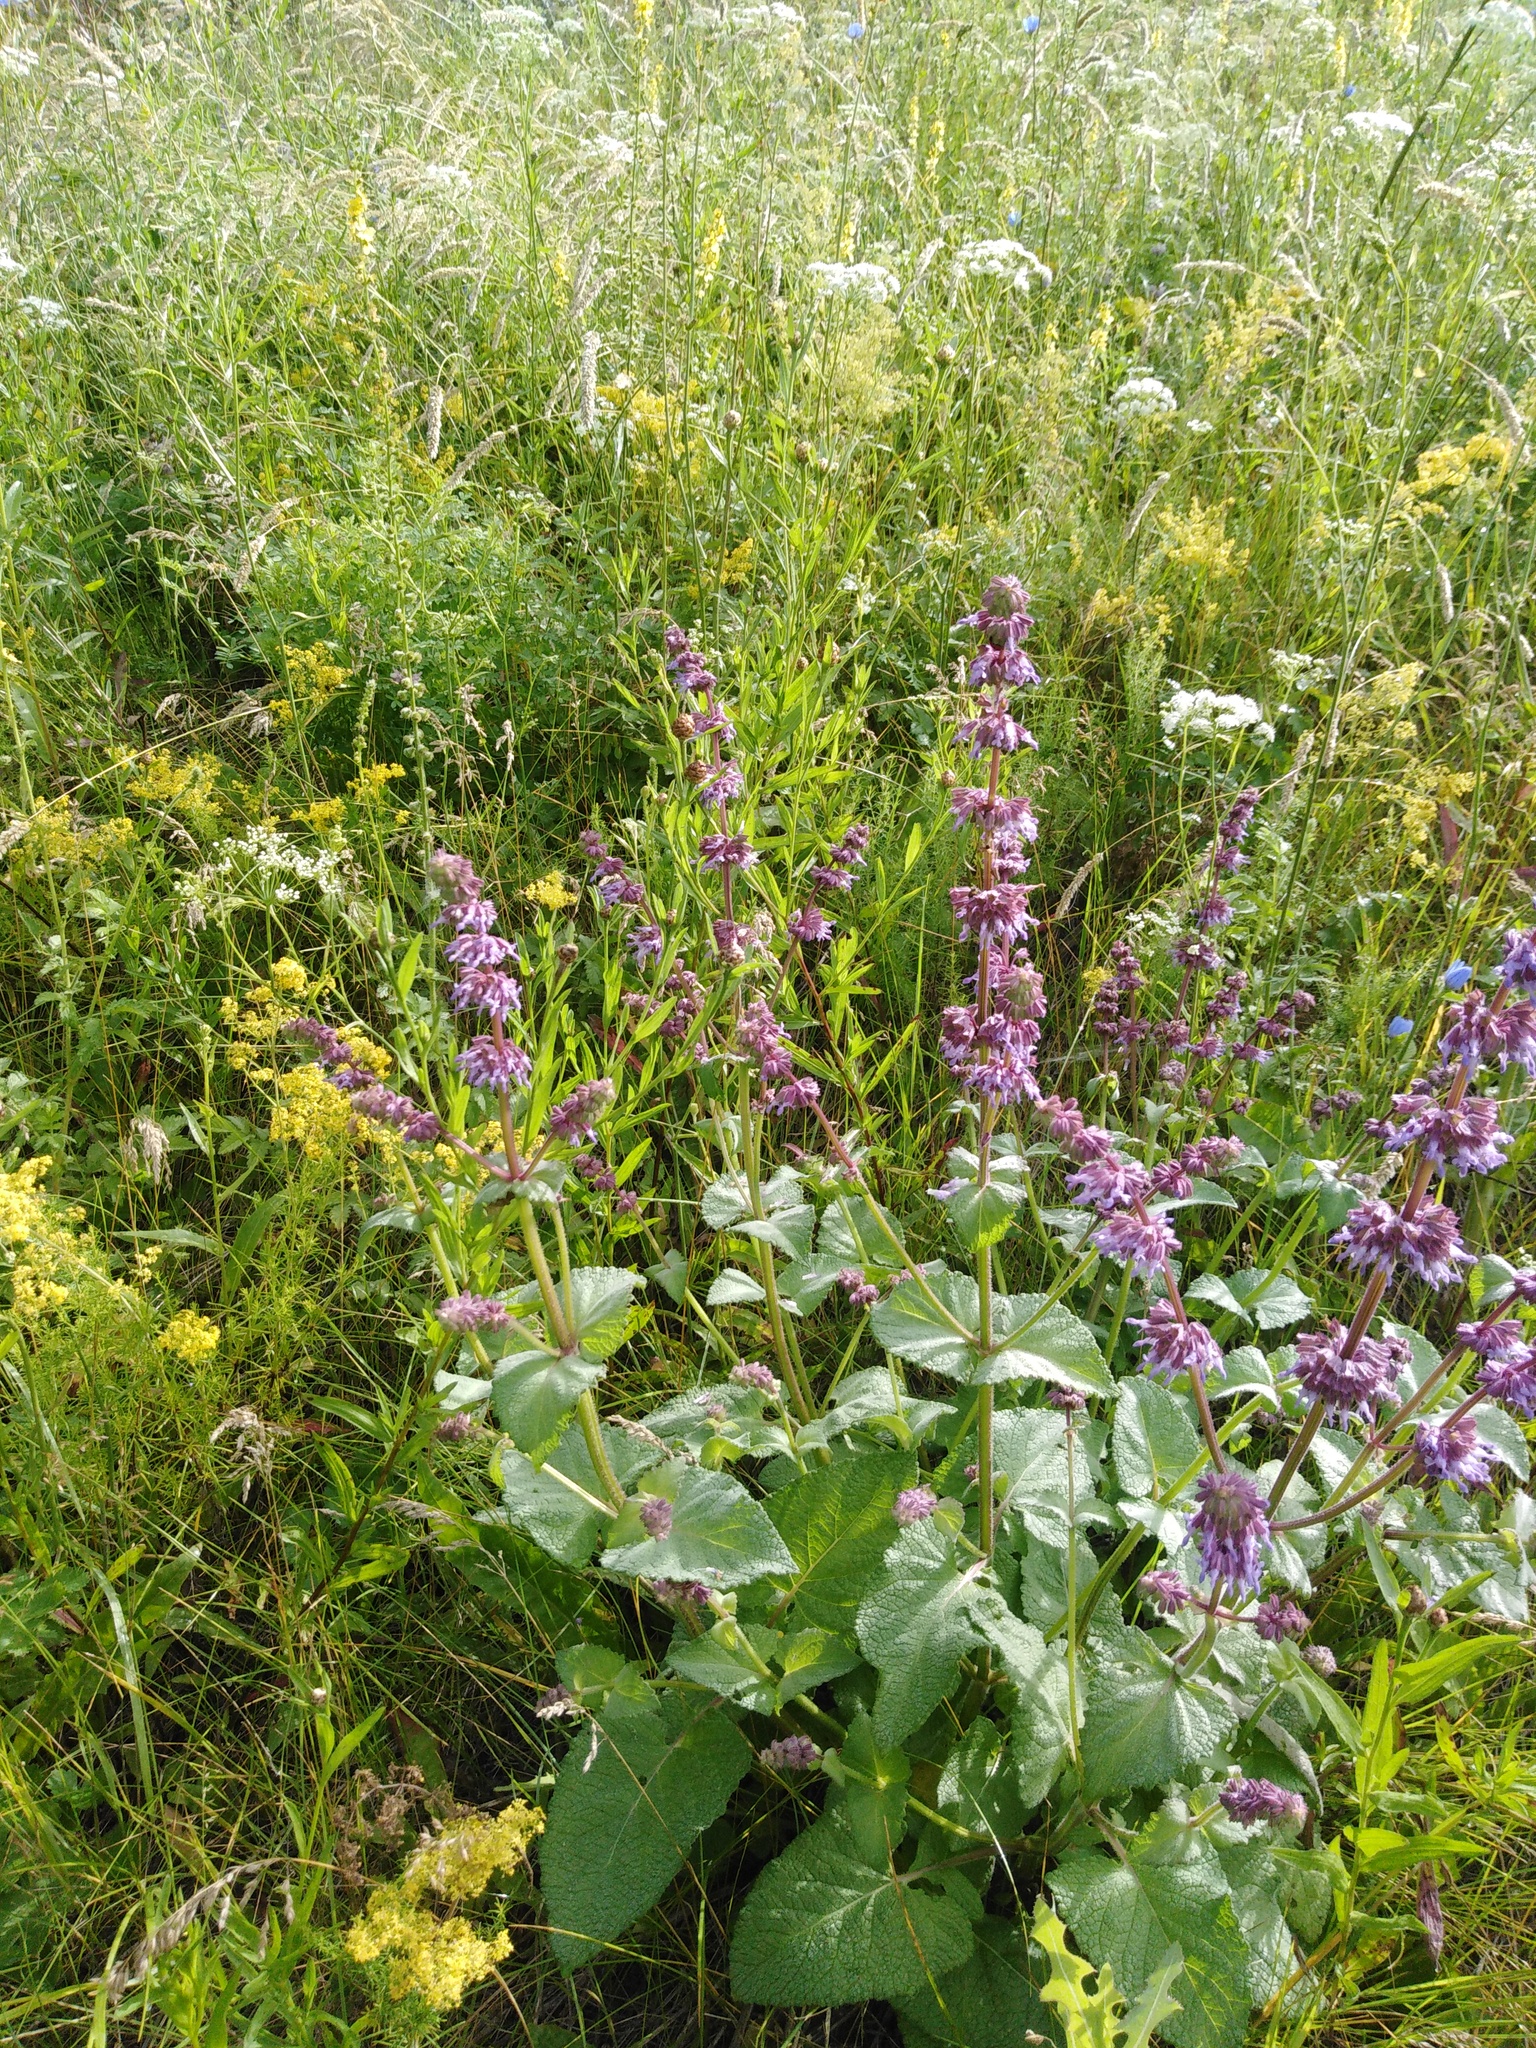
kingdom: Plantae
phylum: Tracheophyta
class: Magnoliopsida
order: Lamiales
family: Lamiaceae
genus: Salvia
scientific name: Salvia verticillata
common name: Whorled clary
